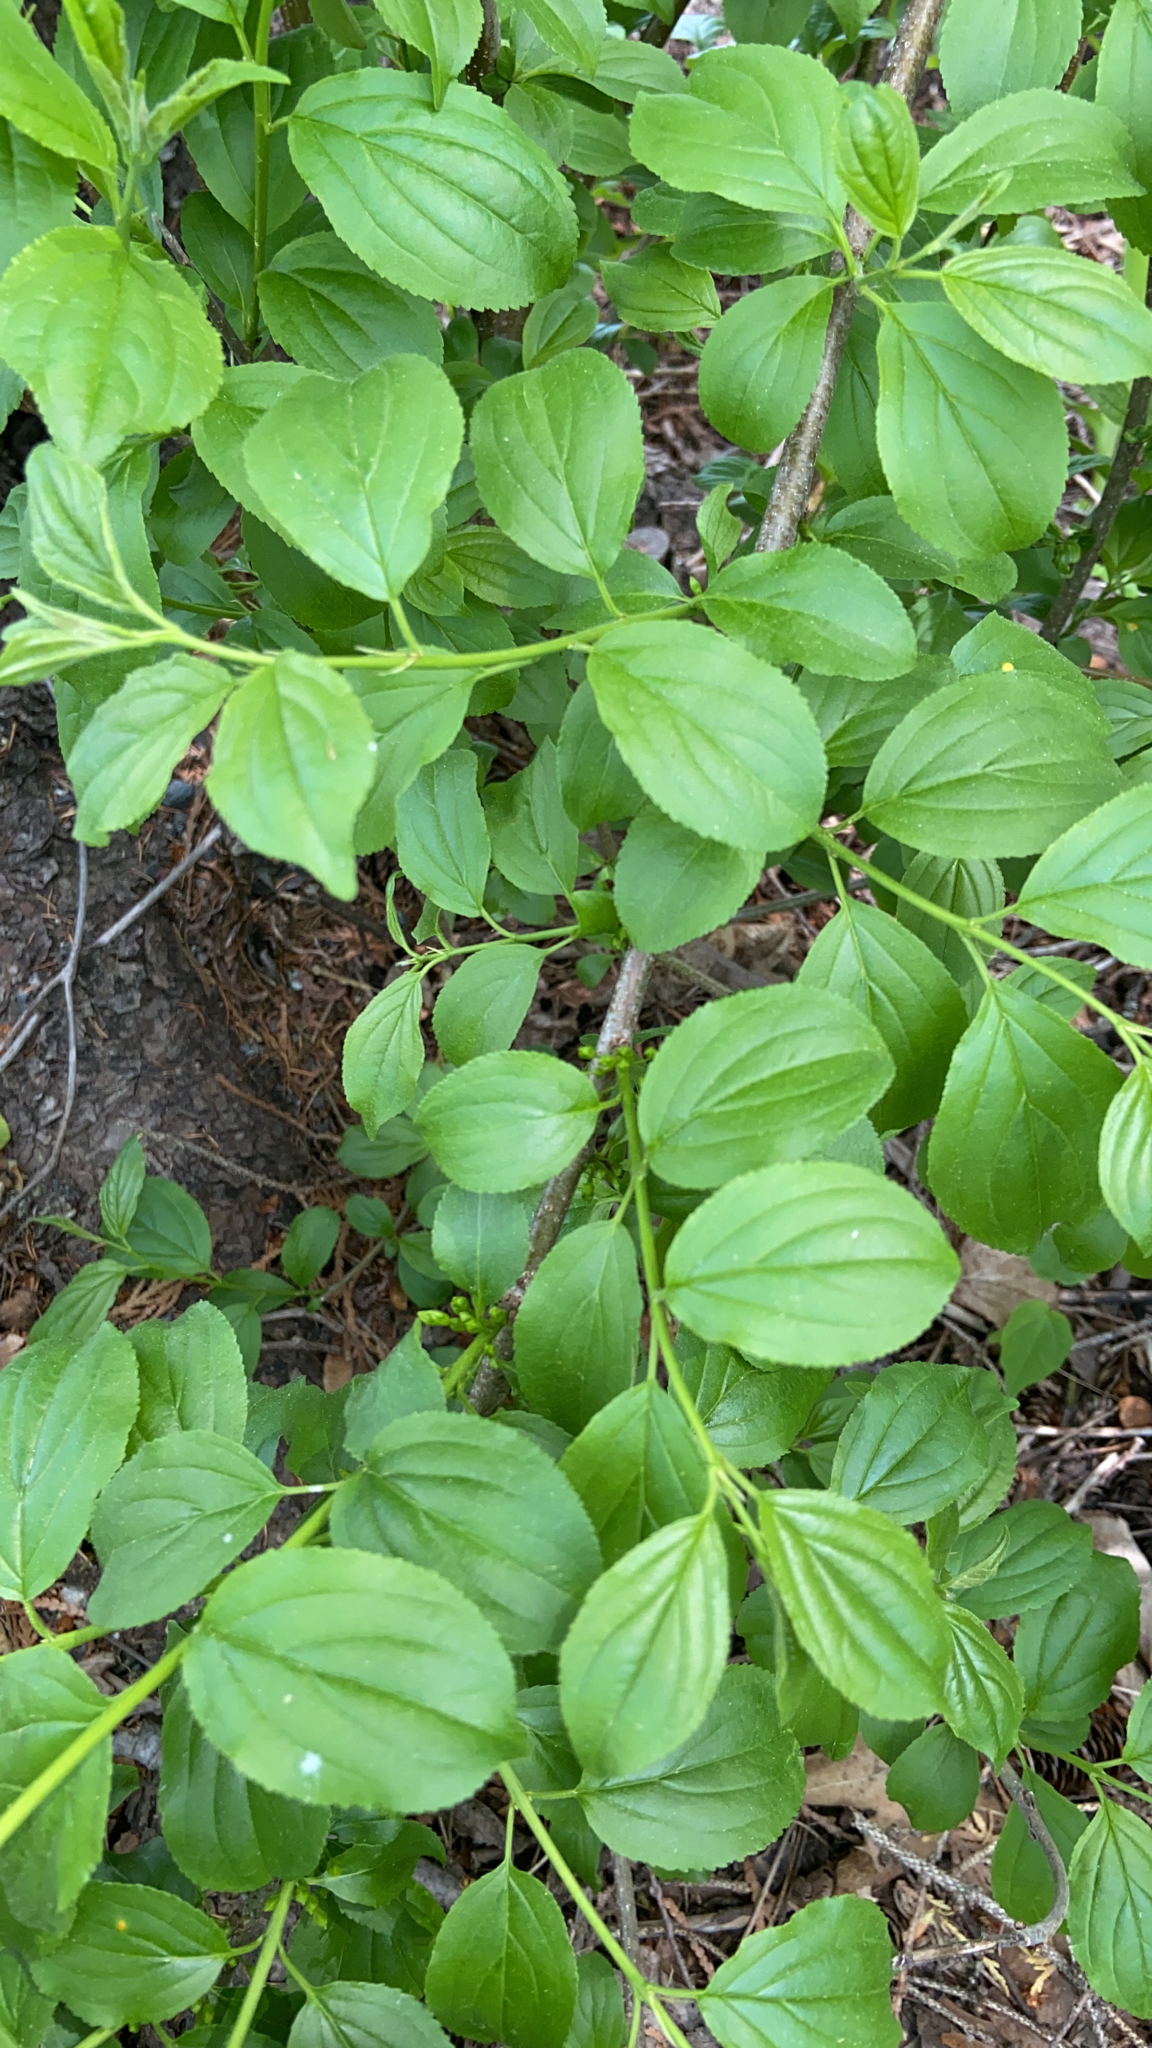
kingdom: Plantae
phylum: Tracheophyta
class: Magnoliopsida
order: Rosales
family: Rhamnaceae
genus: Rhamnus
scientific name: Rhamnus cathartica
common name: Common buckthorn
